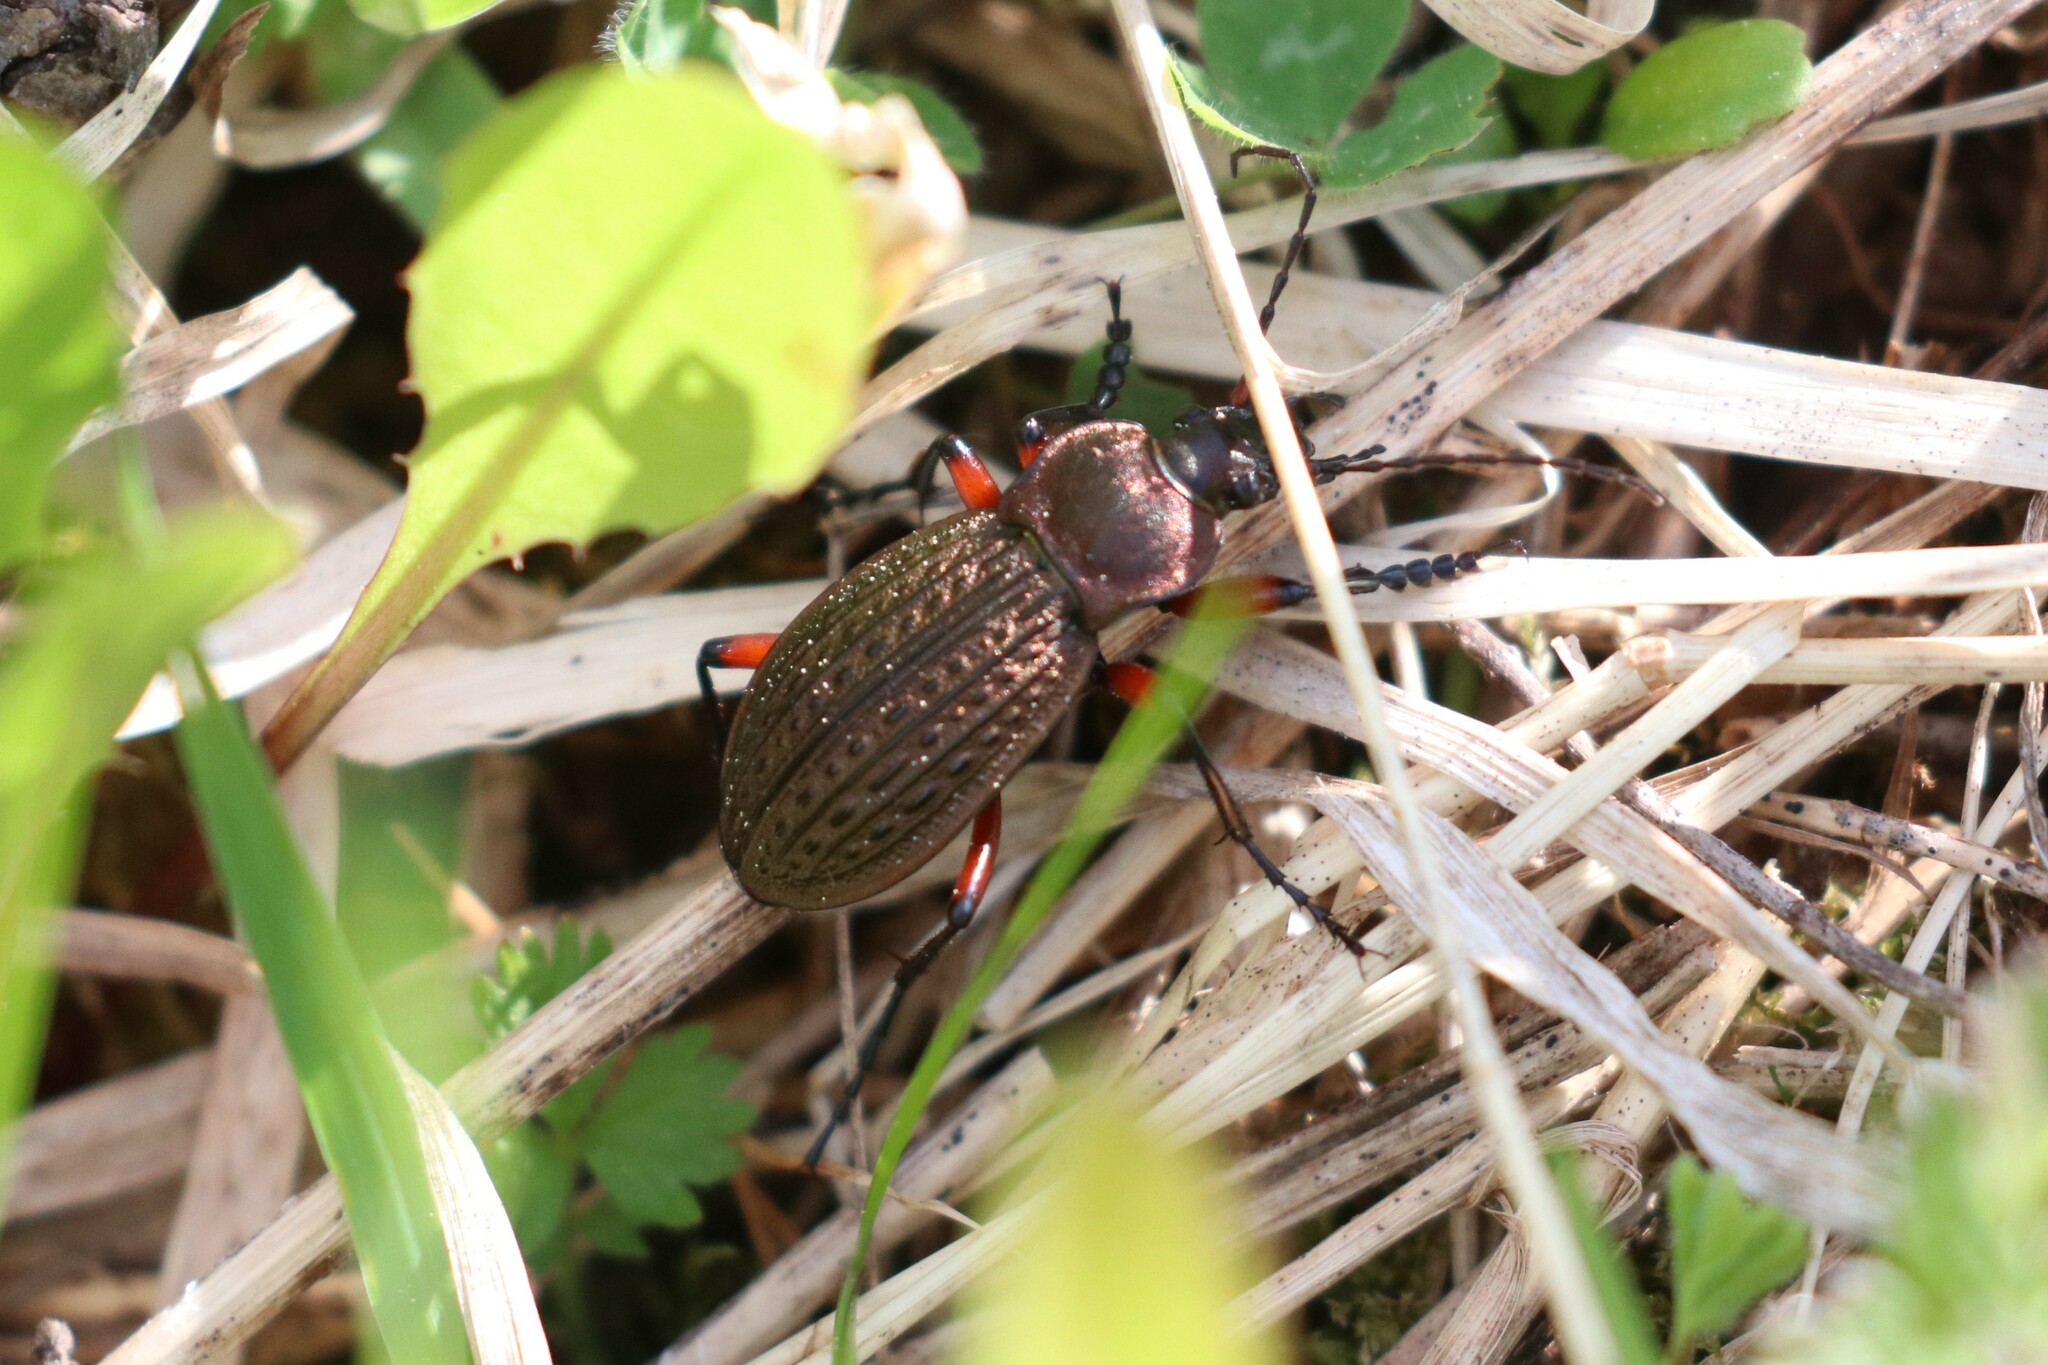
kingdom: Animalia
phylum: Arthropoda
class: Insecta
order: Coleoptera
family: Carabidae
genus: Carabus
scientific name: Carabus cancellatus
